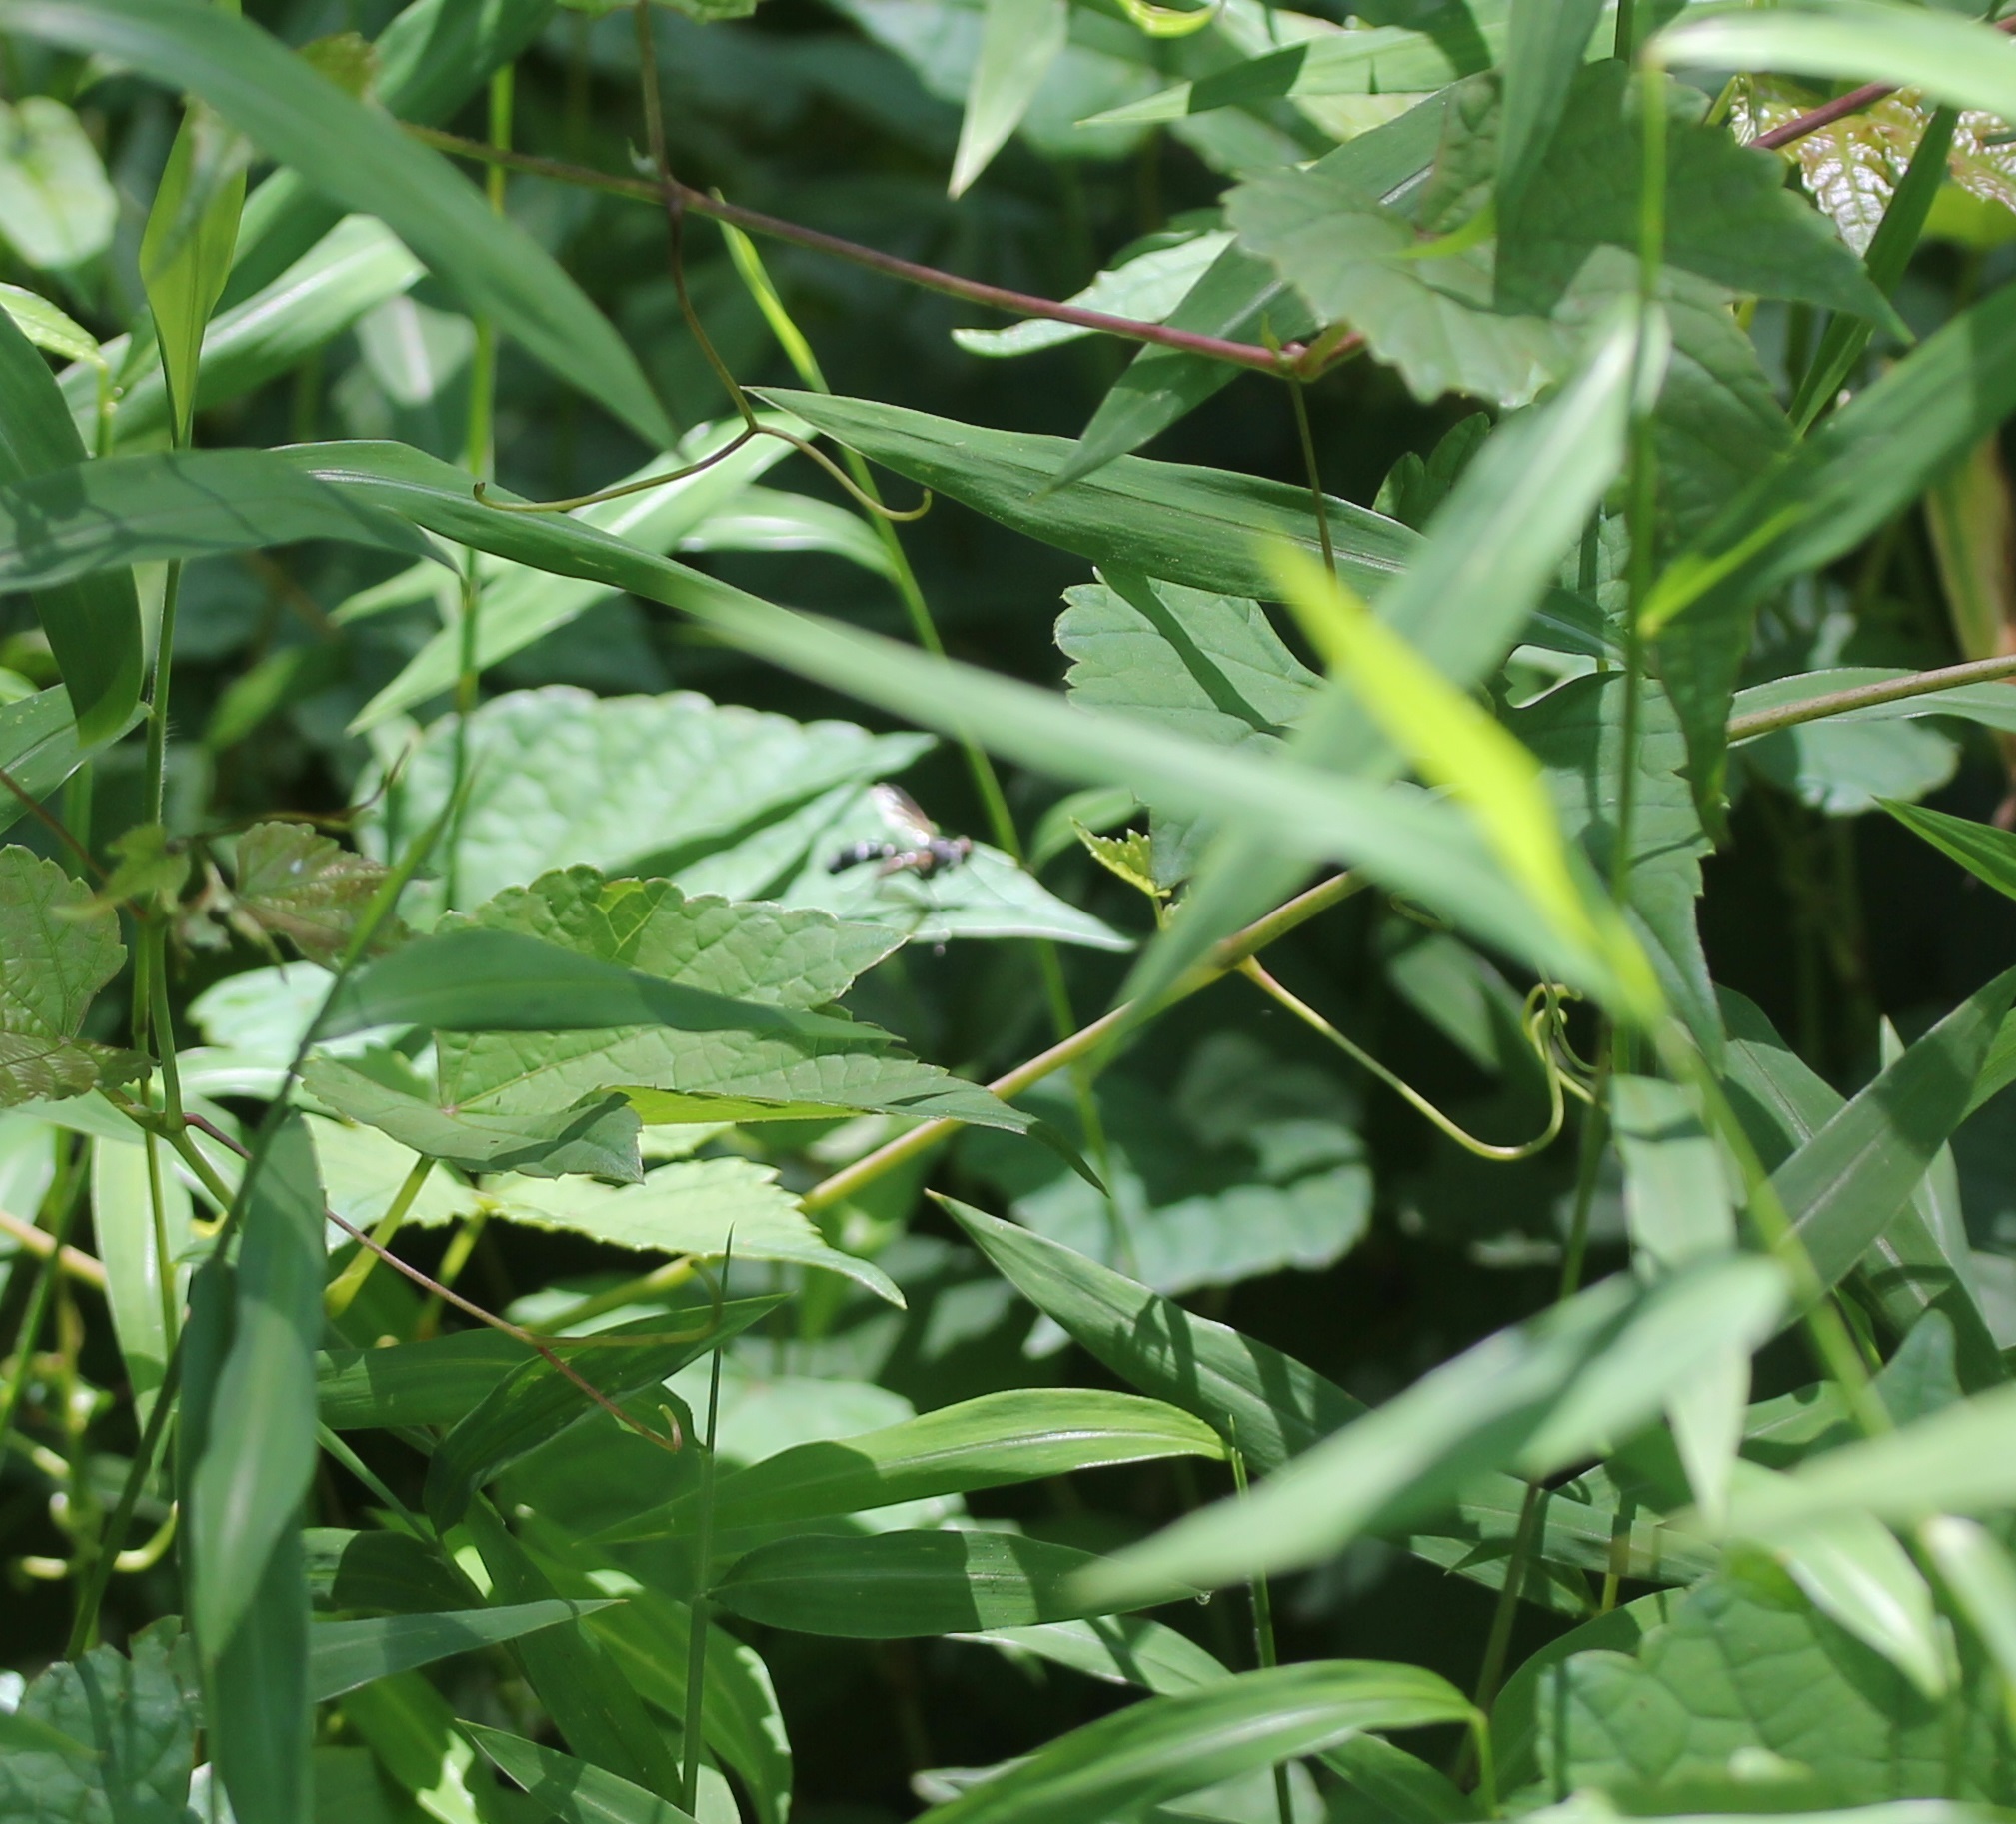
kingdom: Animalia
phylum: Arthropoda
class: Insecta
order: Diptera
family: Tachinidae
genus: Cordyligaster
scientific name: Cordyligaster septentrionalis
